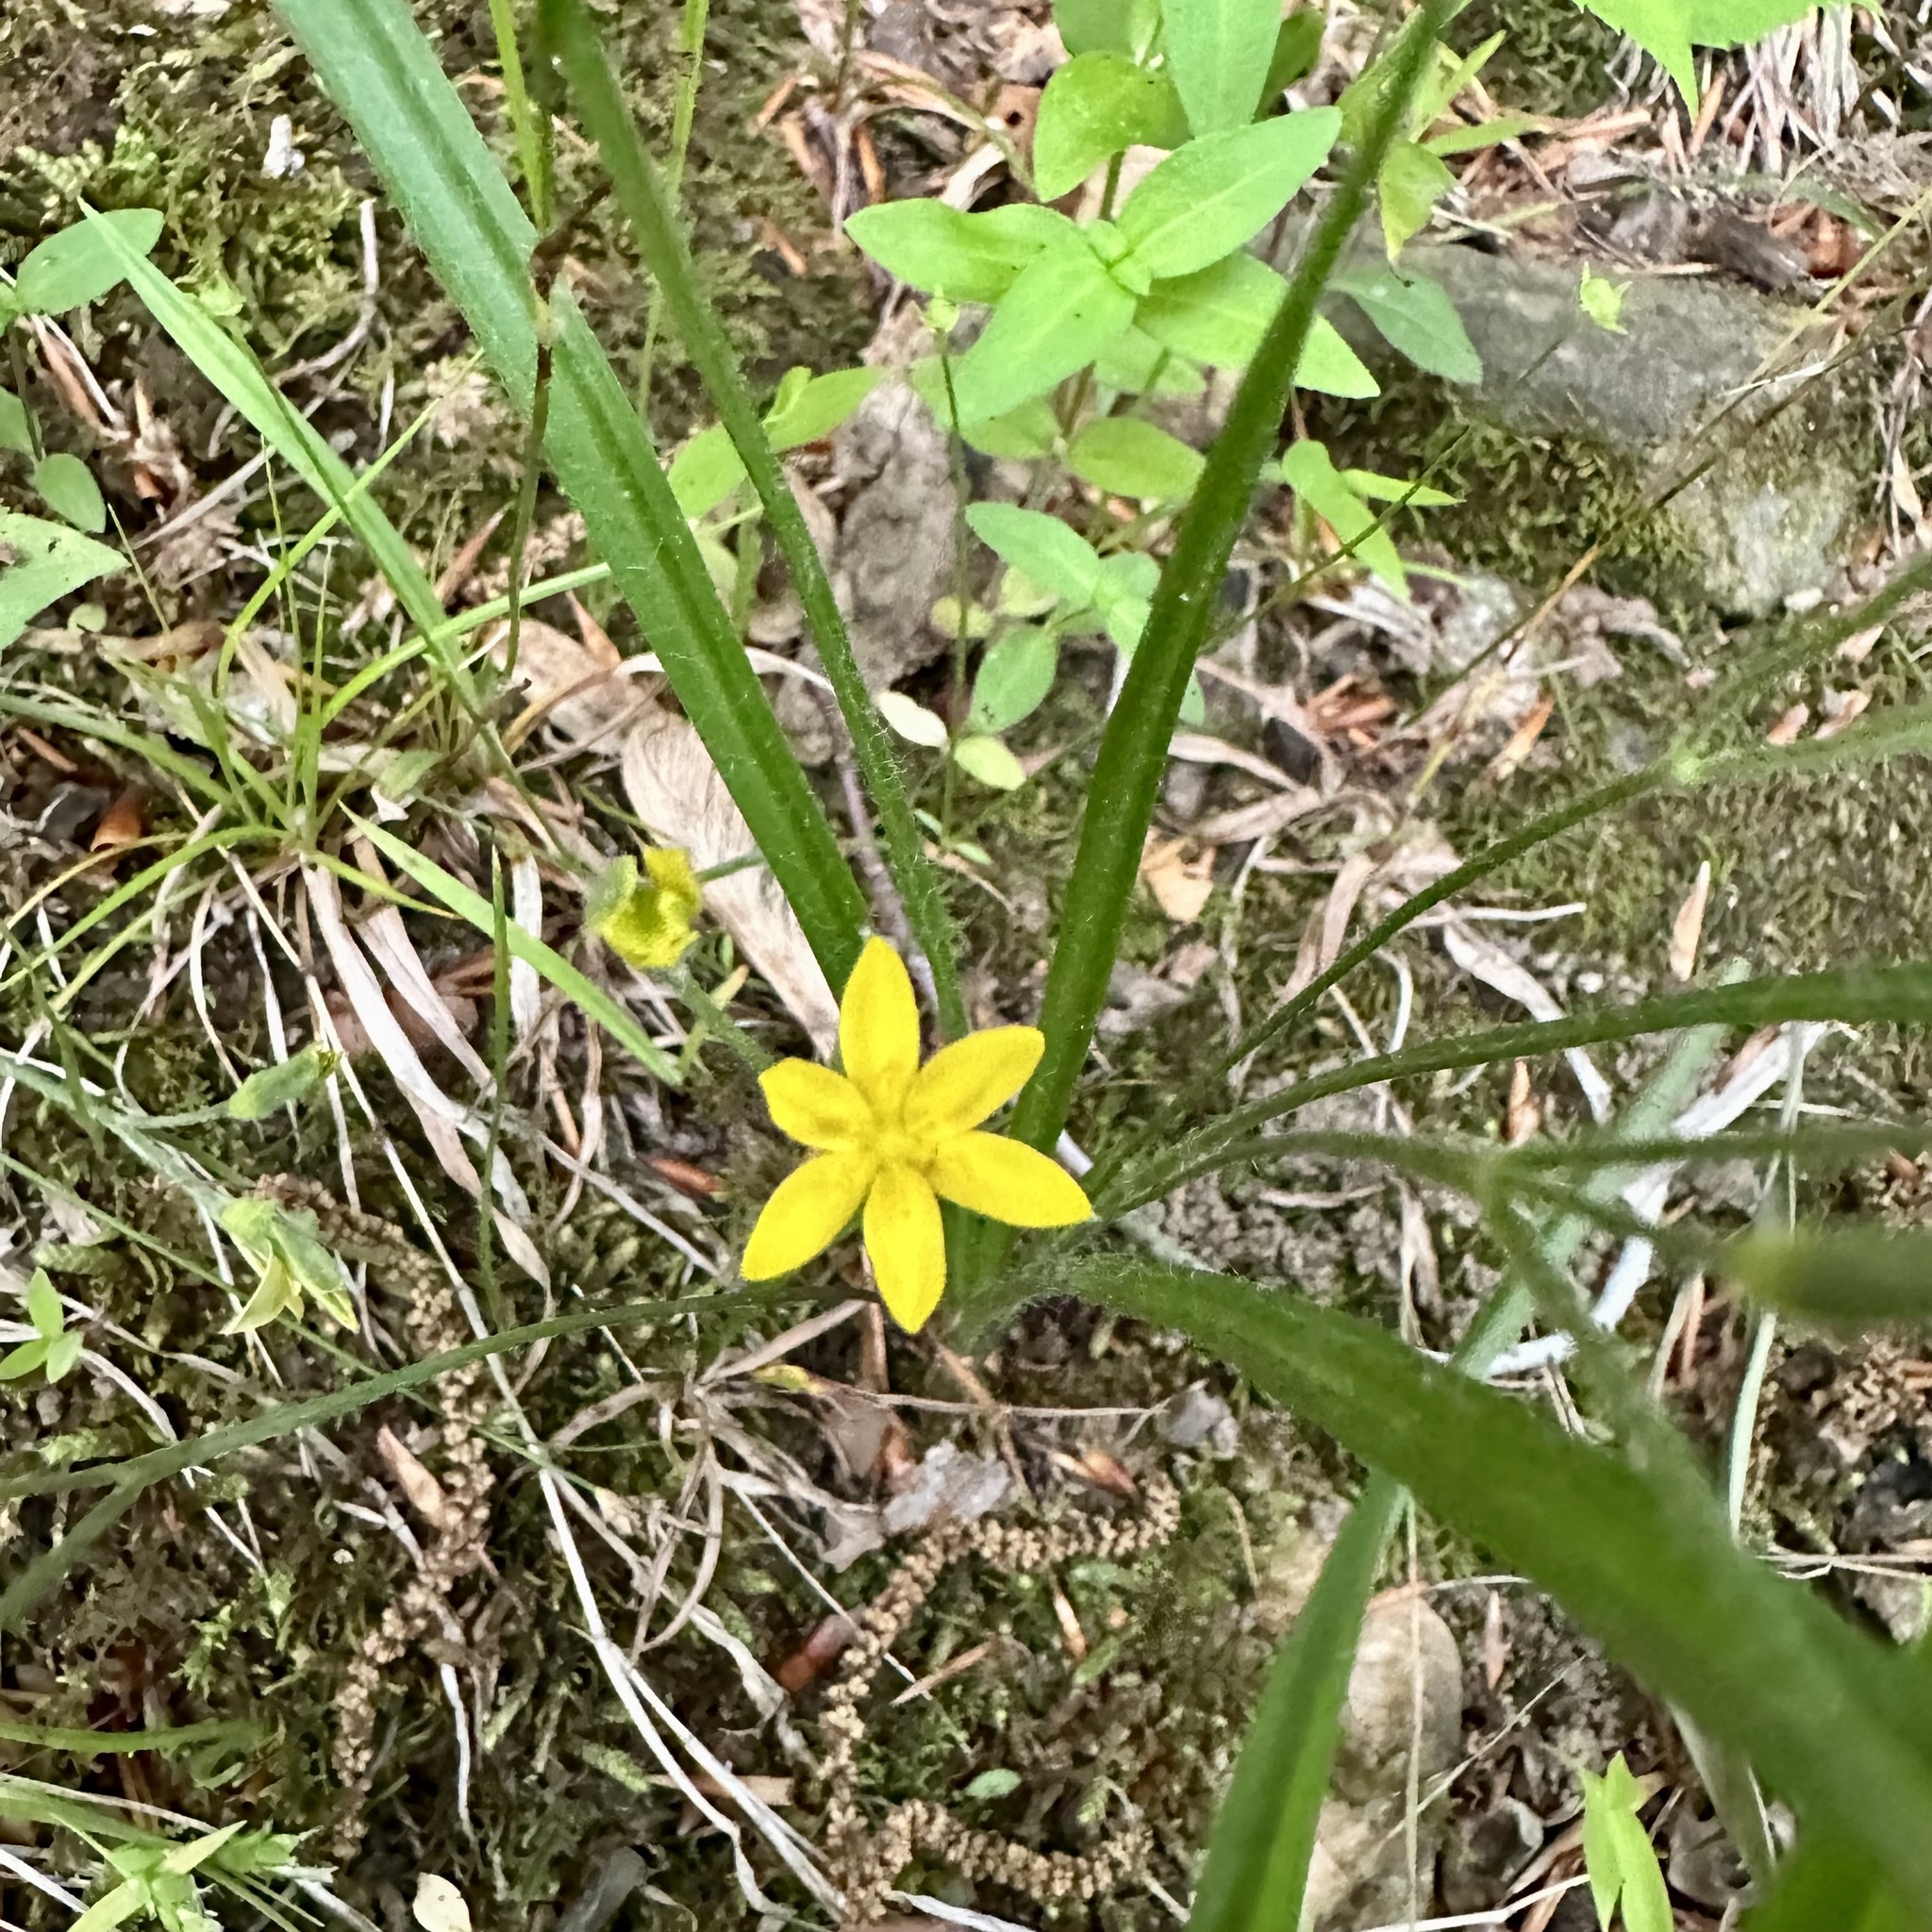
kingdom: Plantae
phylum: Tracheophyta
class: Liliopsida
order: Asparagales
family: Hypoxidaceae
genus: Hypoxis
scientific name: Hypoxis hirsuta
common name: Common goldstar
